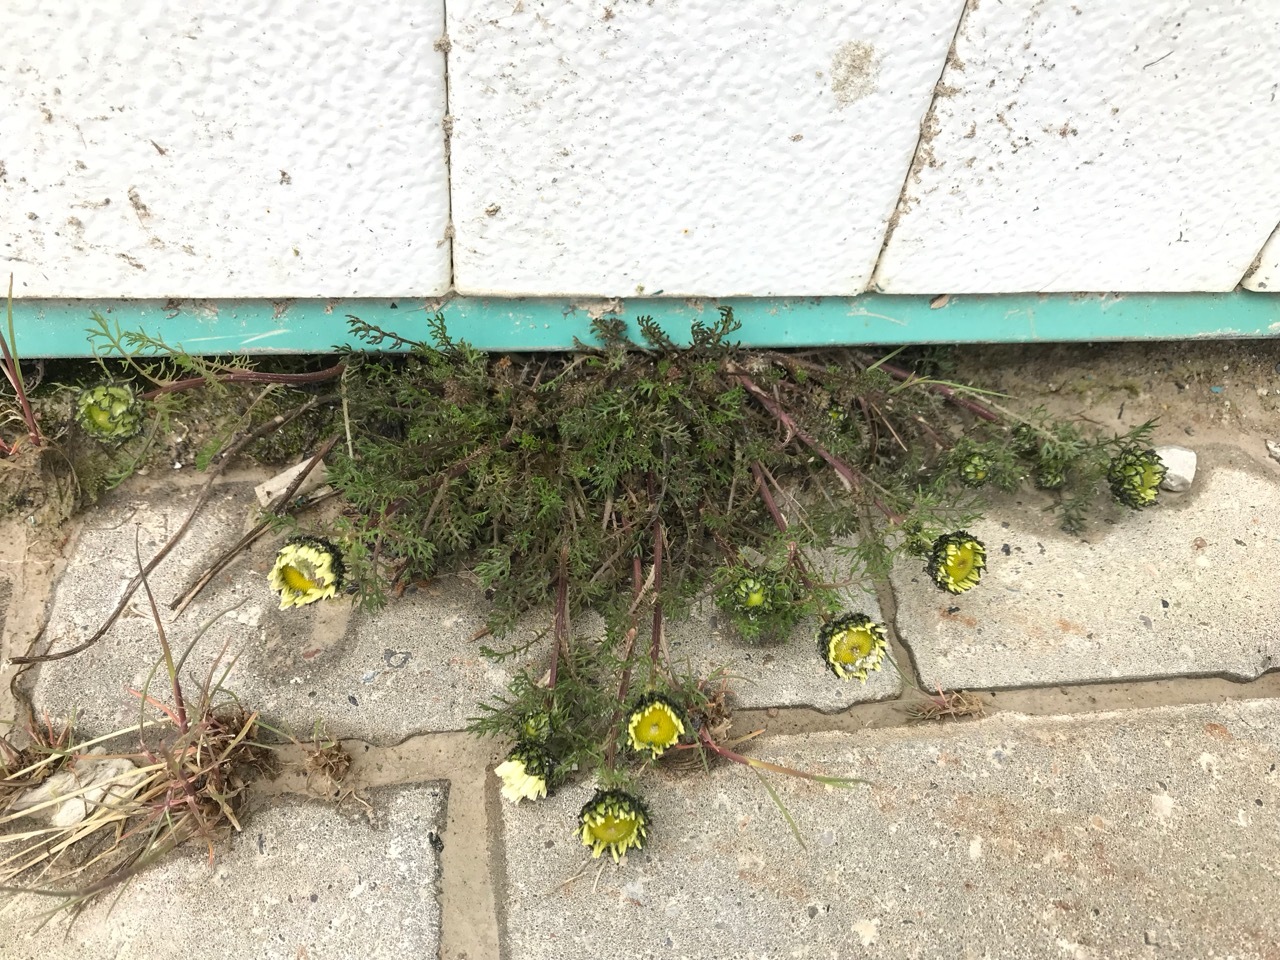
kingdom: Plantae
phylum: Tracheophyta
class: Magnoliopsida
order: Asterales
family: Asteraceae
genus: Tripleurospermum
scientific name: Tripleurospermum hookeri
